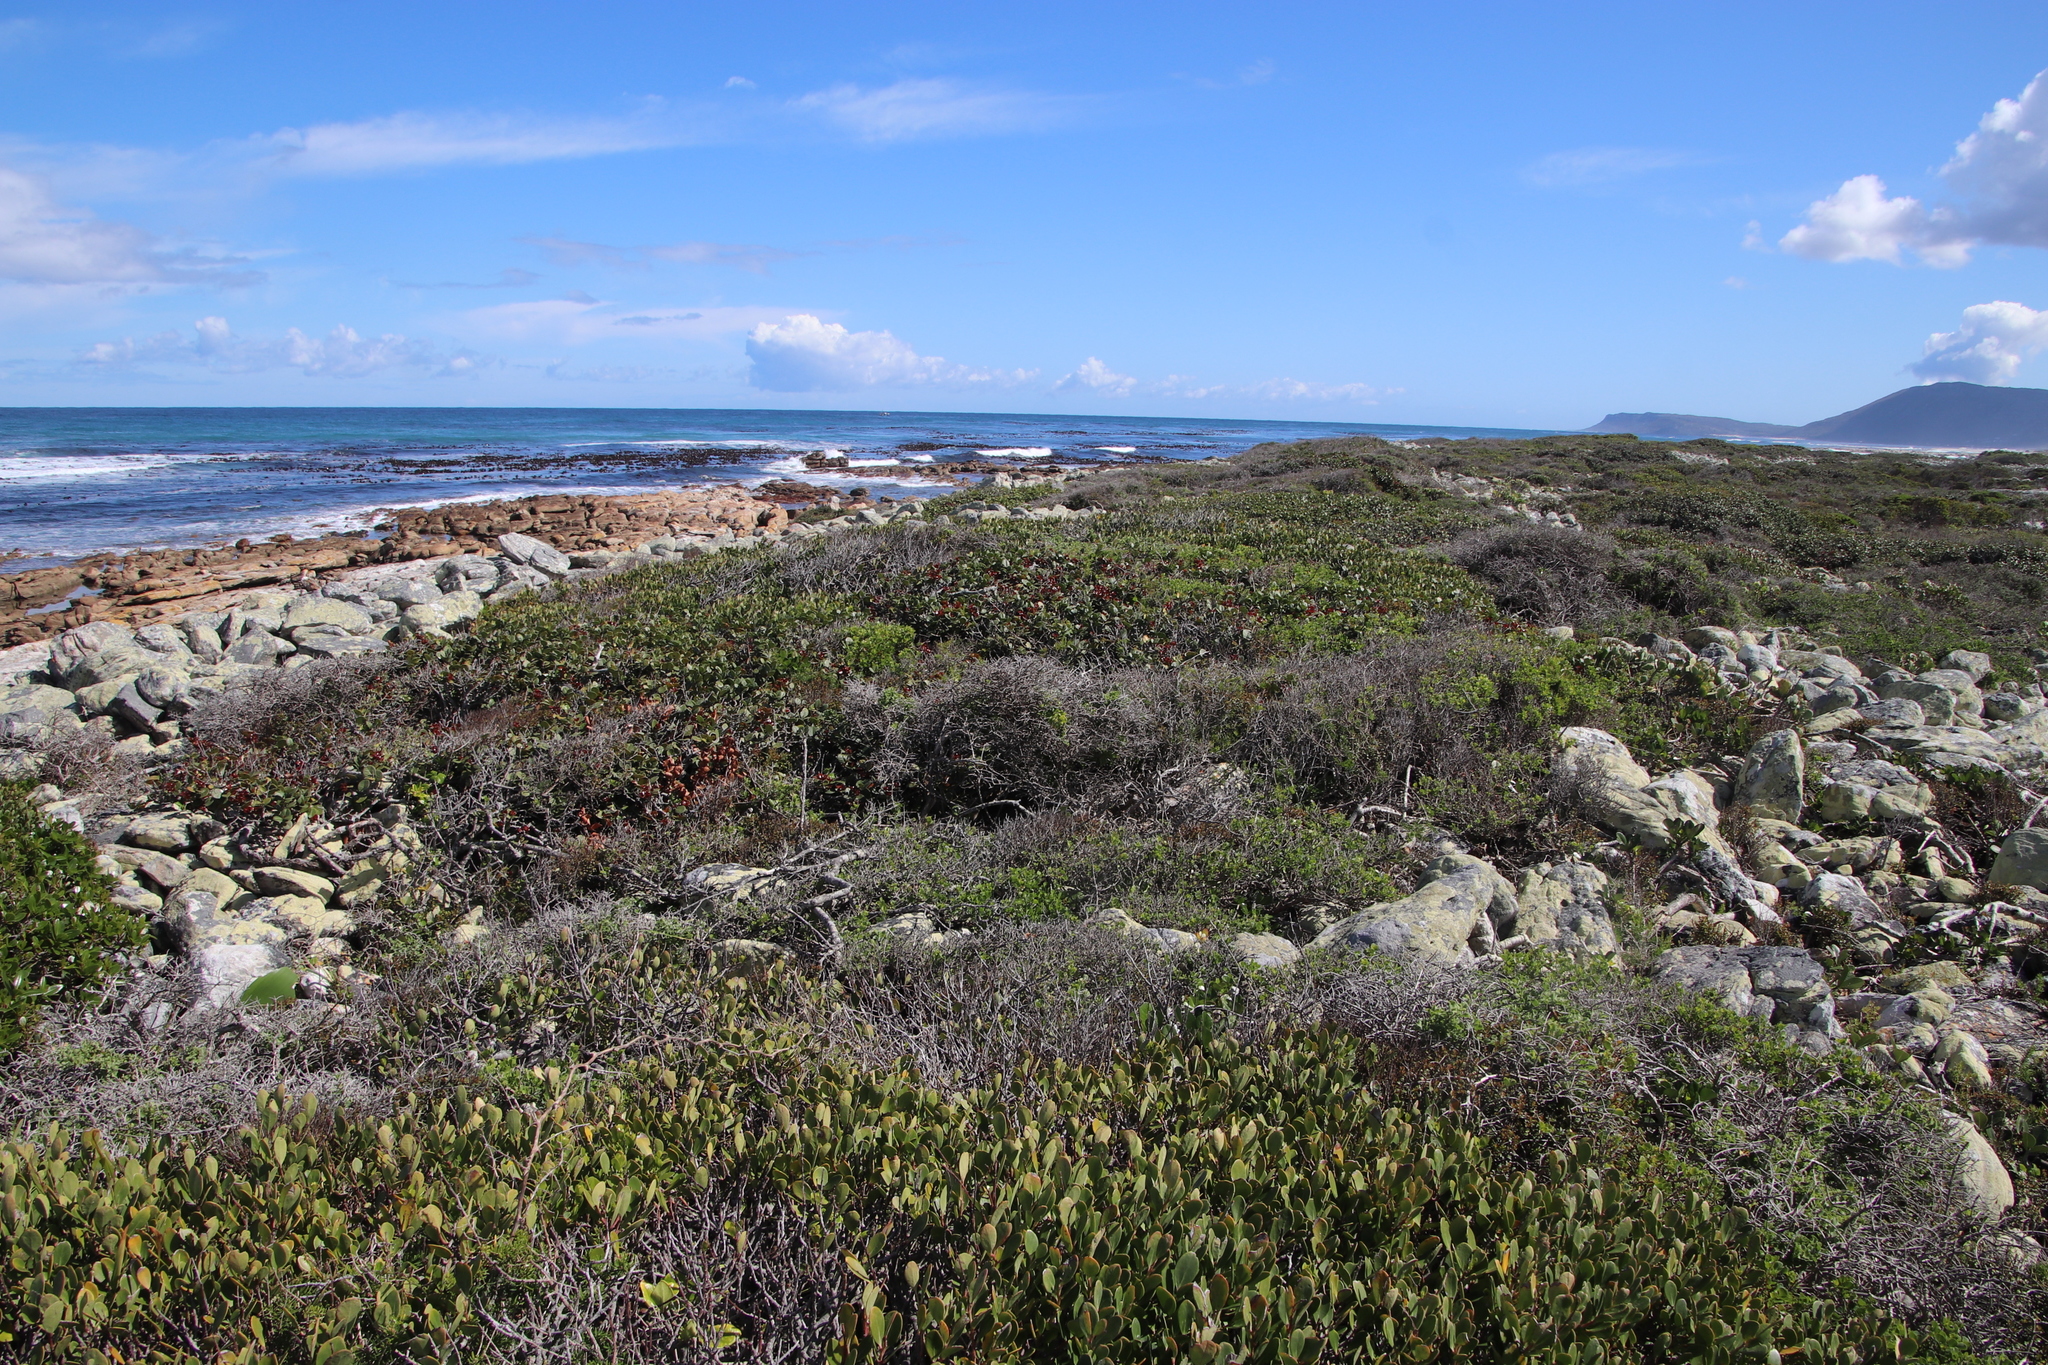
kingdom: Plantae
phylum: Tracheophyta
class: Magnoliopsida
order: Celastrales
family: Celastraceae
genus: Maurocenia
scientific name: Maurocenia frangula
